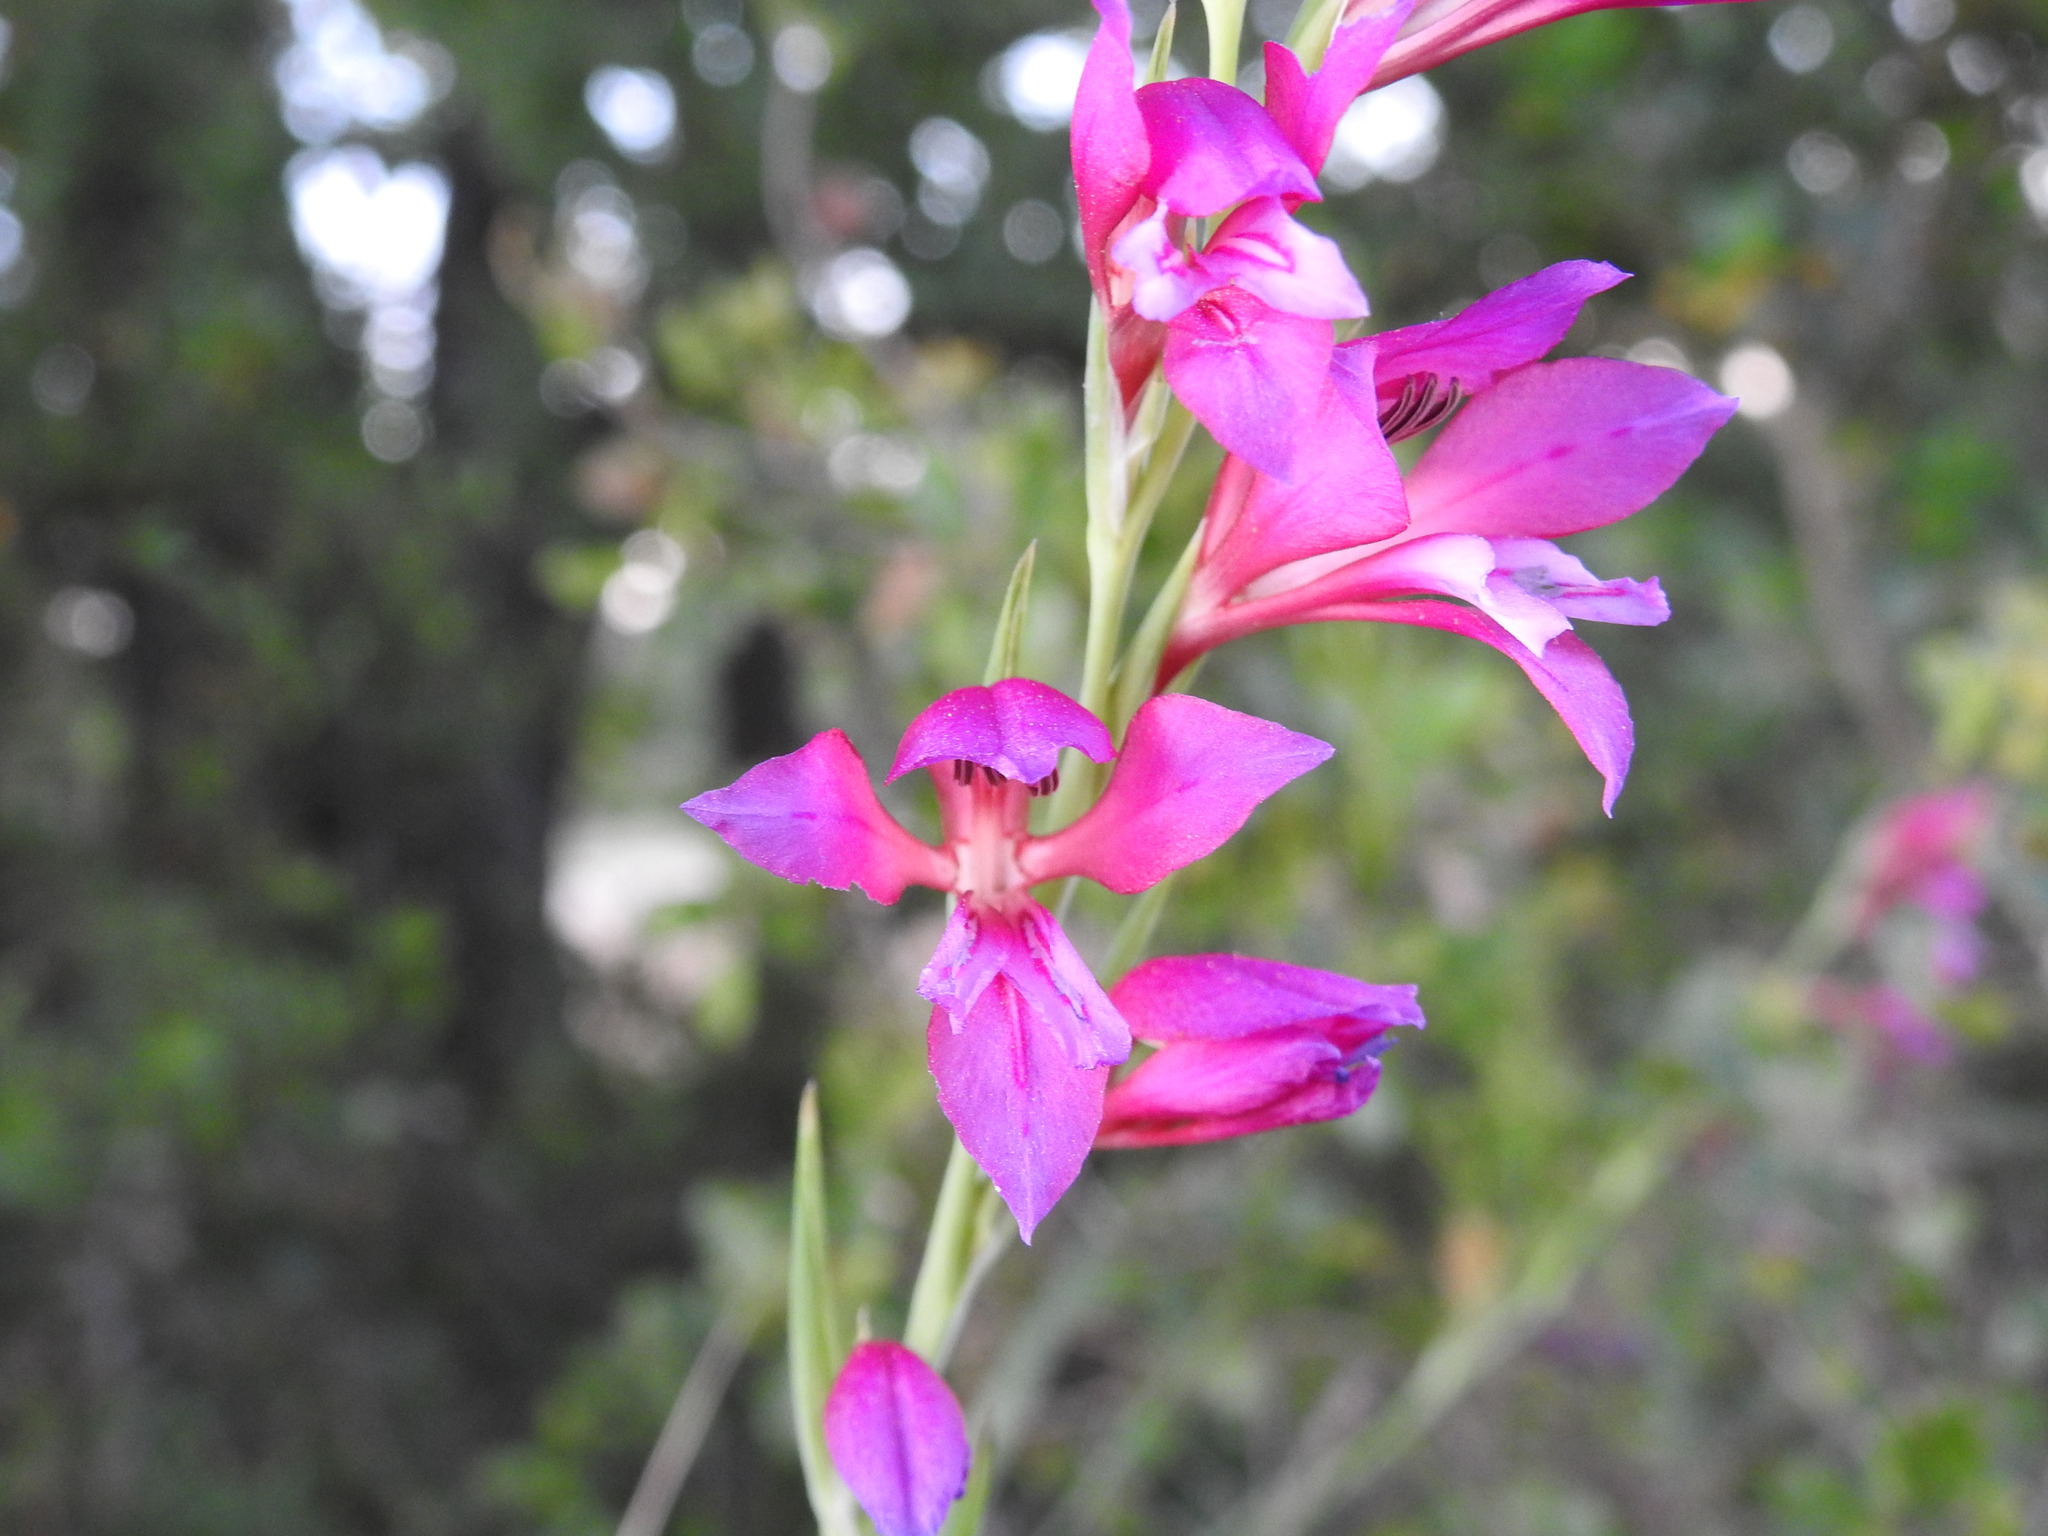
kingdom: Plantae
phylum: Tracheophyta
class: Liliopsida
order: Asparagales
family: Iridaceae
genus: Gladiolus
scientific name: Gladiolus dubius
